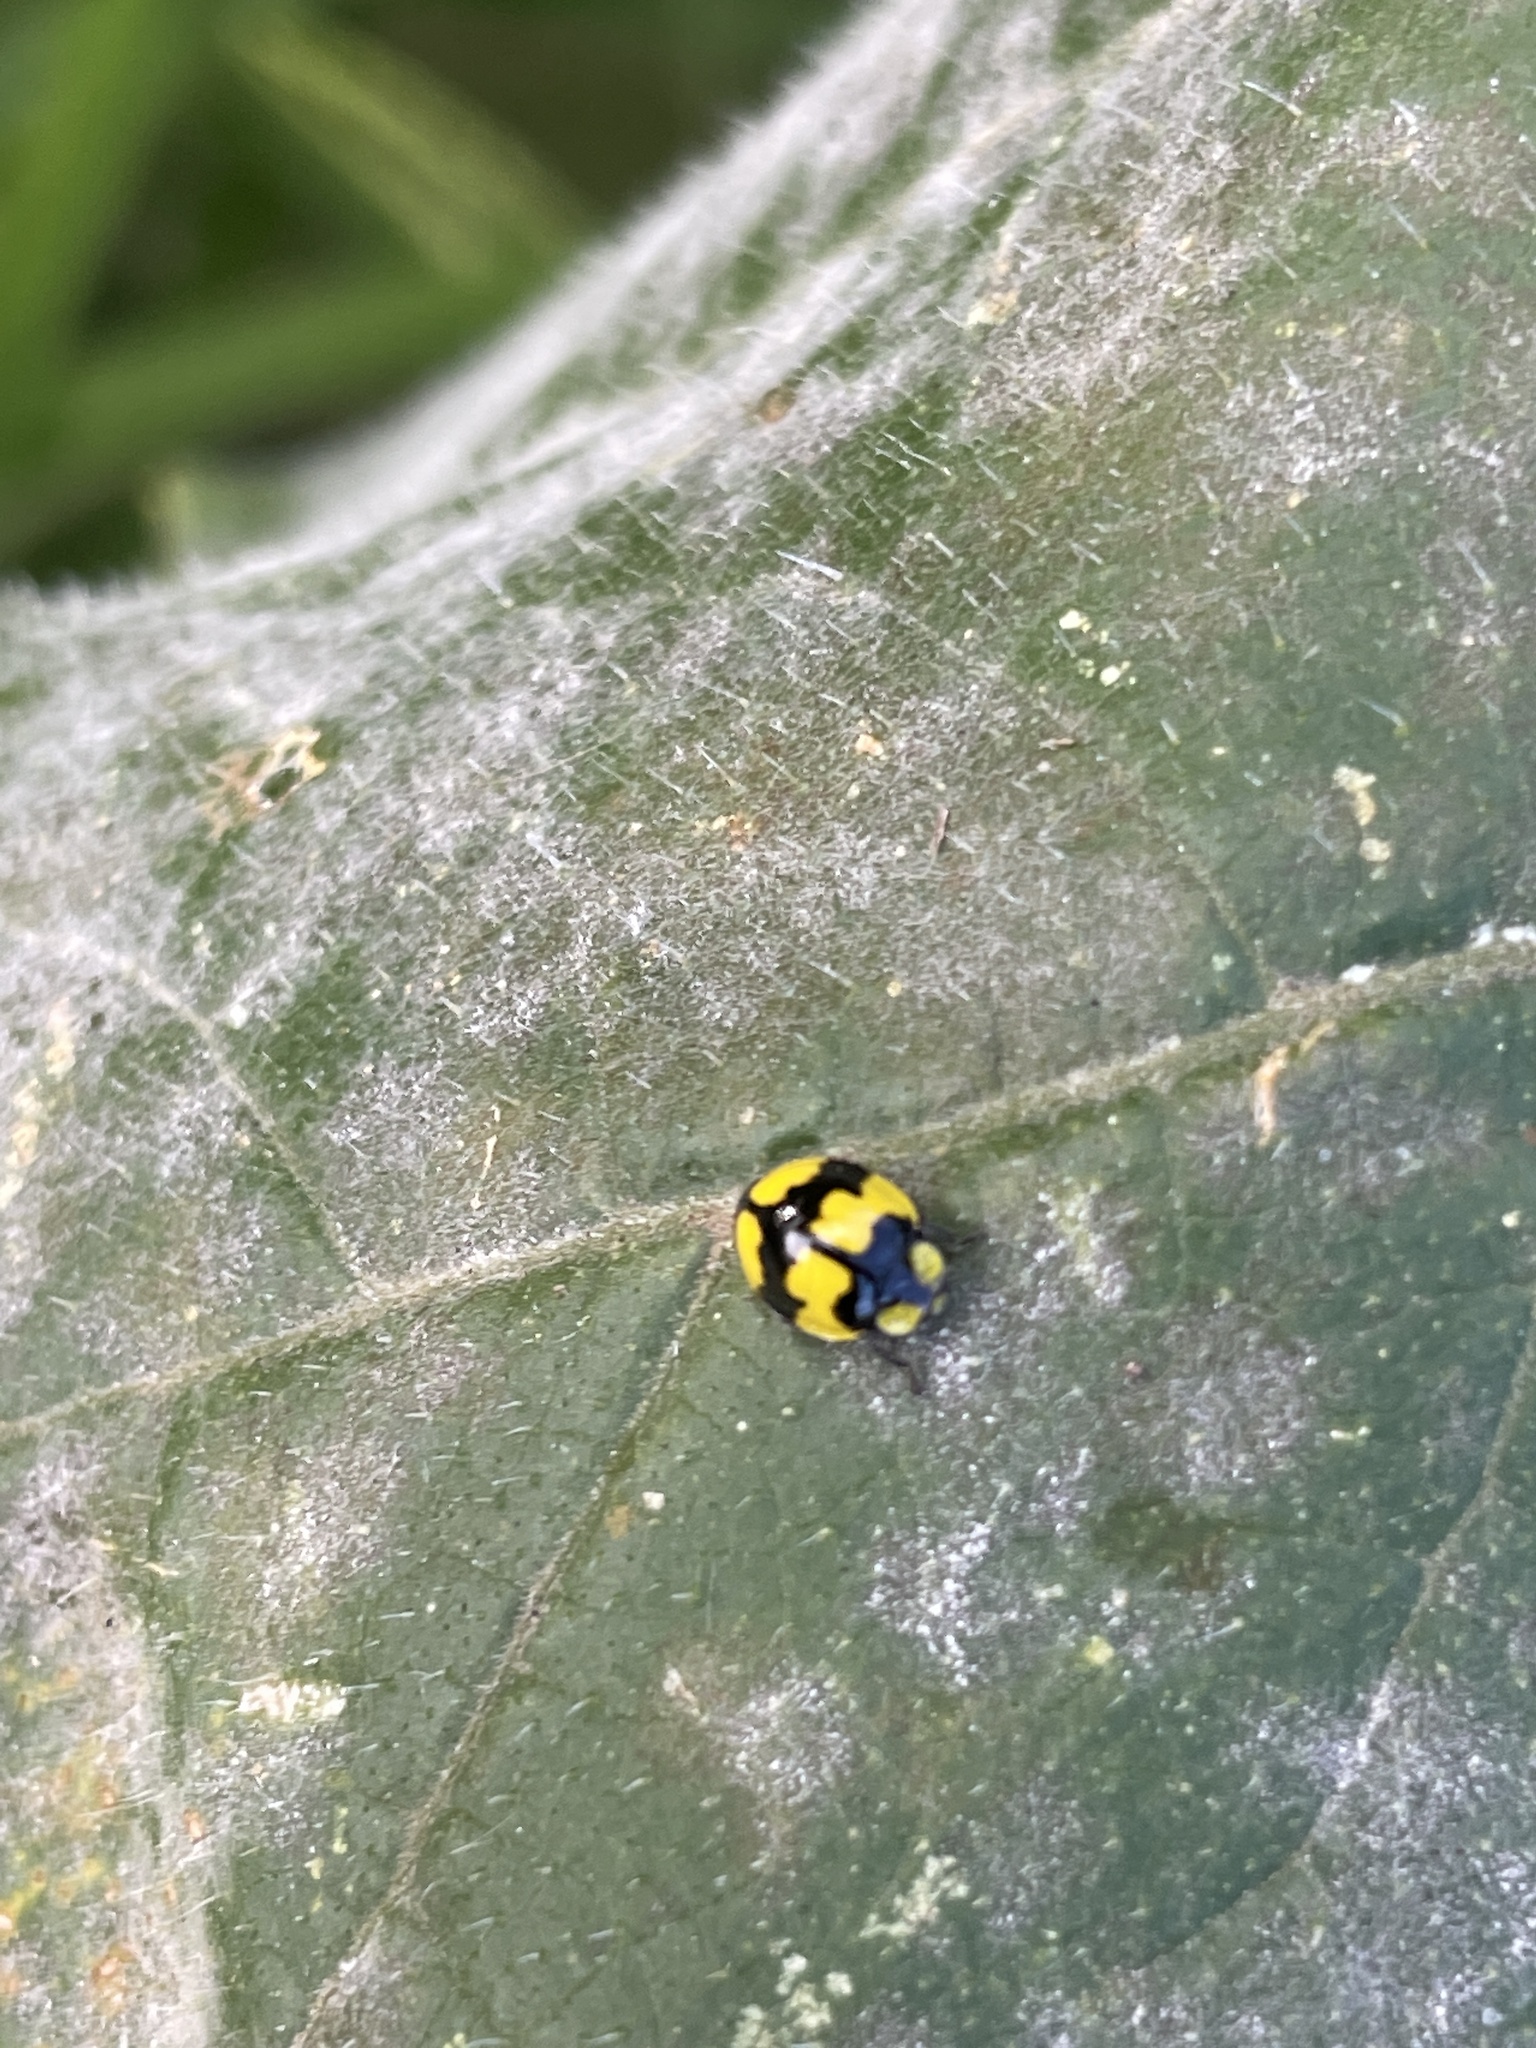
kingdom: Animalia
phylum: Arthropoda
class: Insecta
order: Coleoptera
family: Coccinellidae
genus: Illeis
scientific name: Illeis galbula
